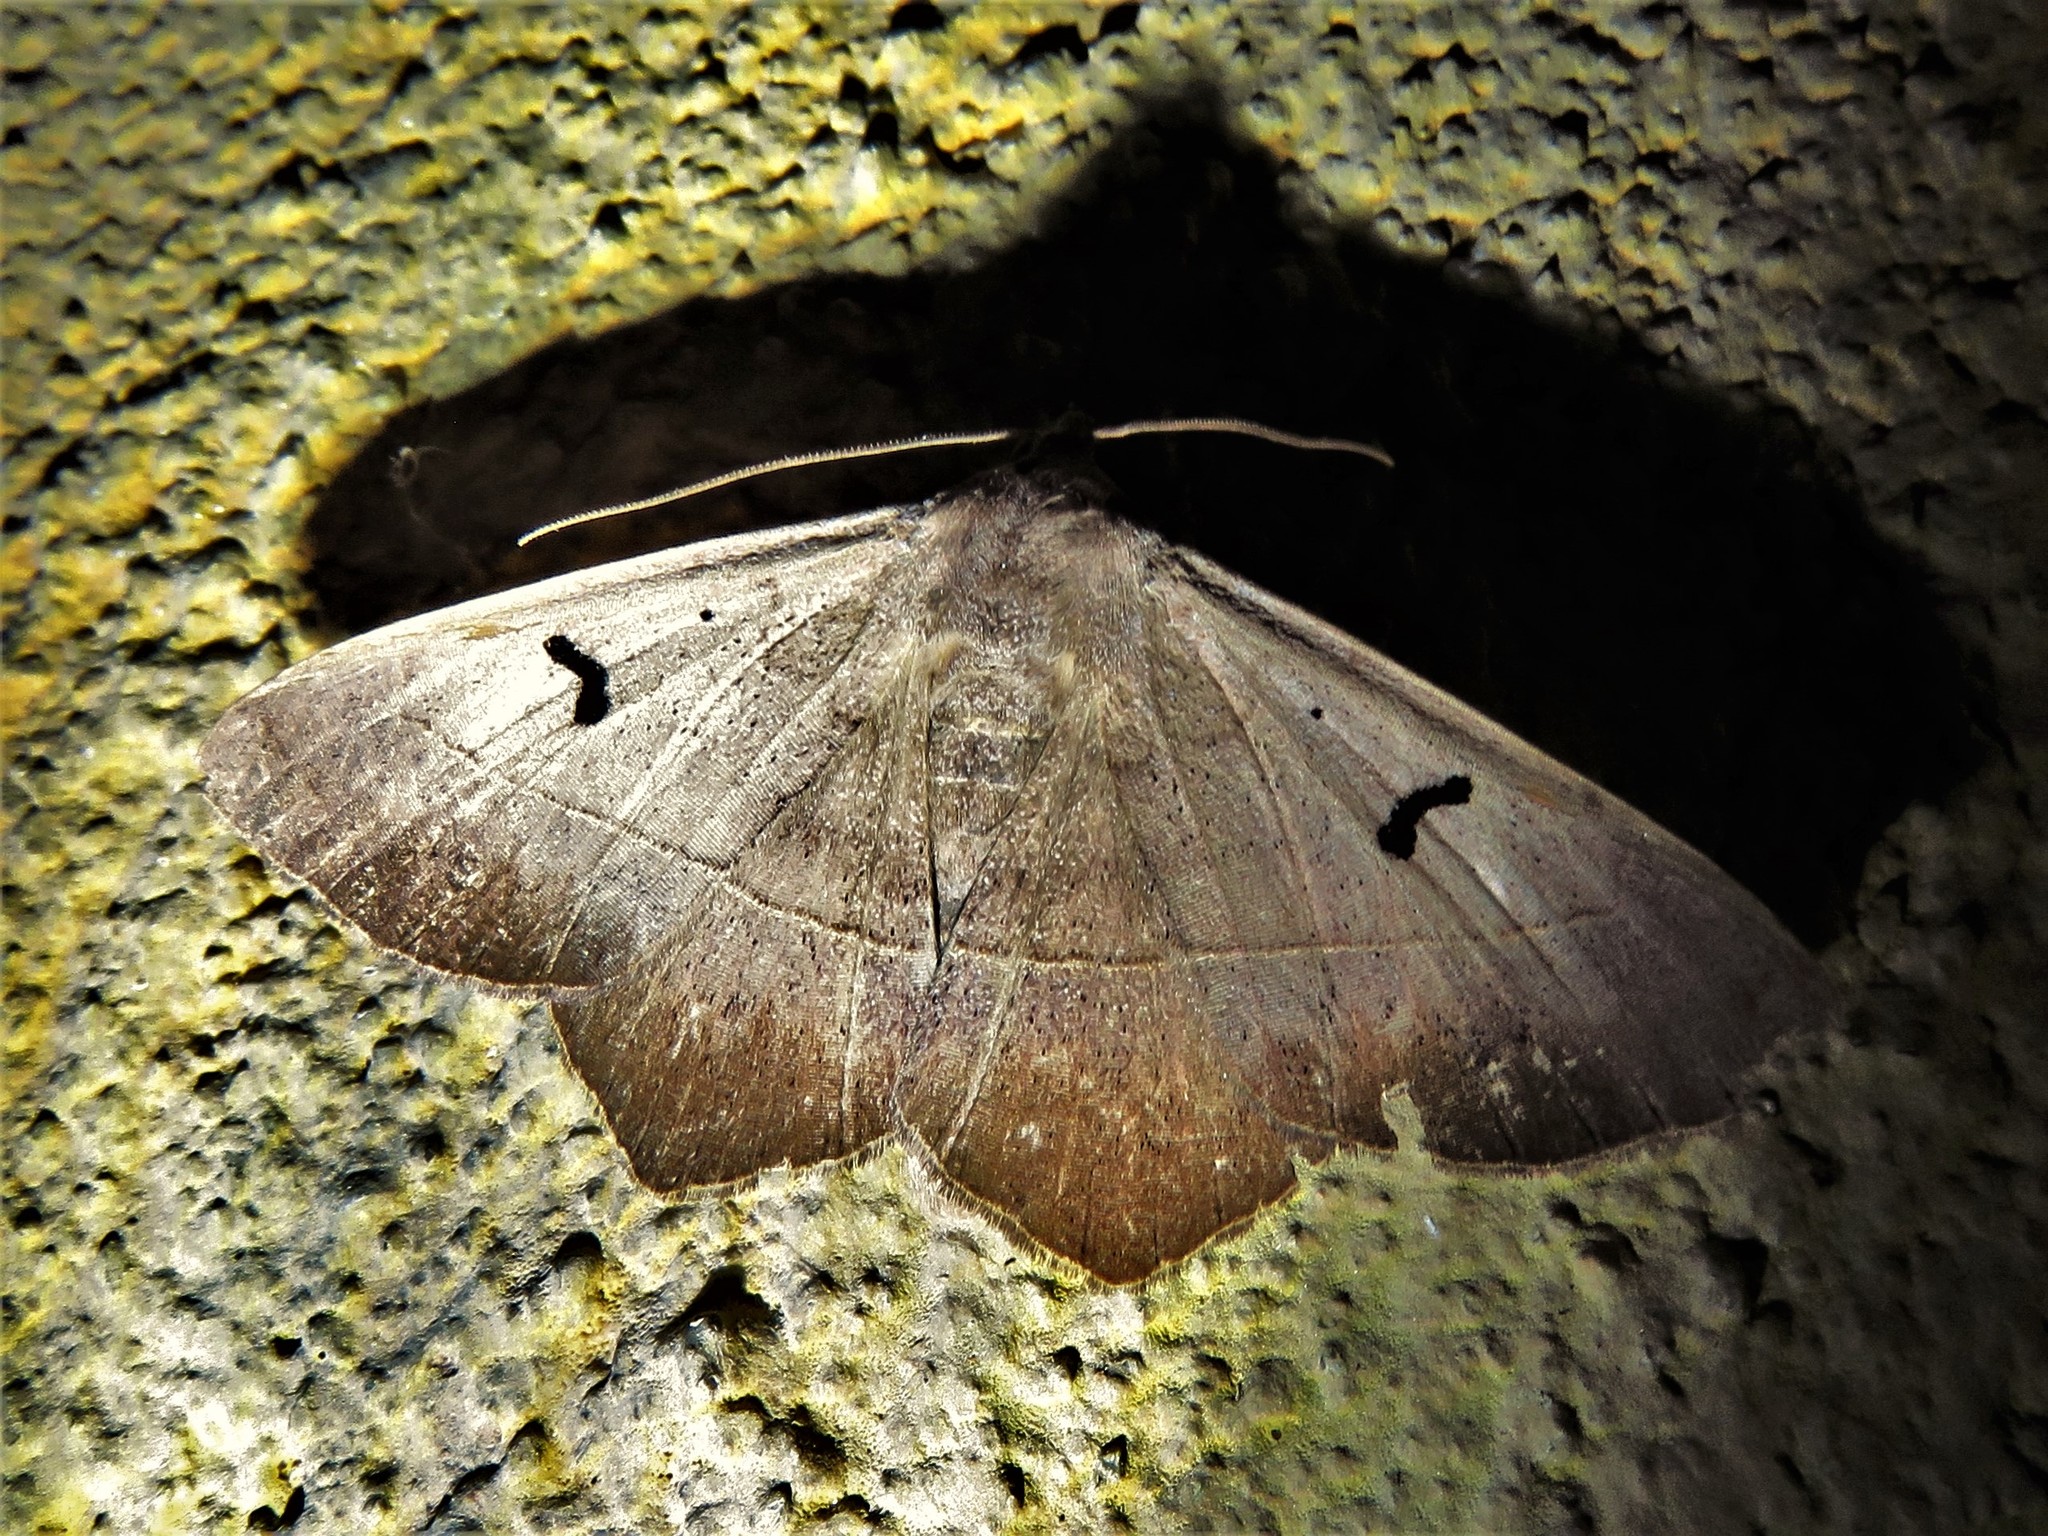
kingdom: Animalia
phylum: Arthropoda
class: Insecta
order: Lepidoptera
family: Erebidae
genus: Epidromia
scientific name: Epidromia lienaris
